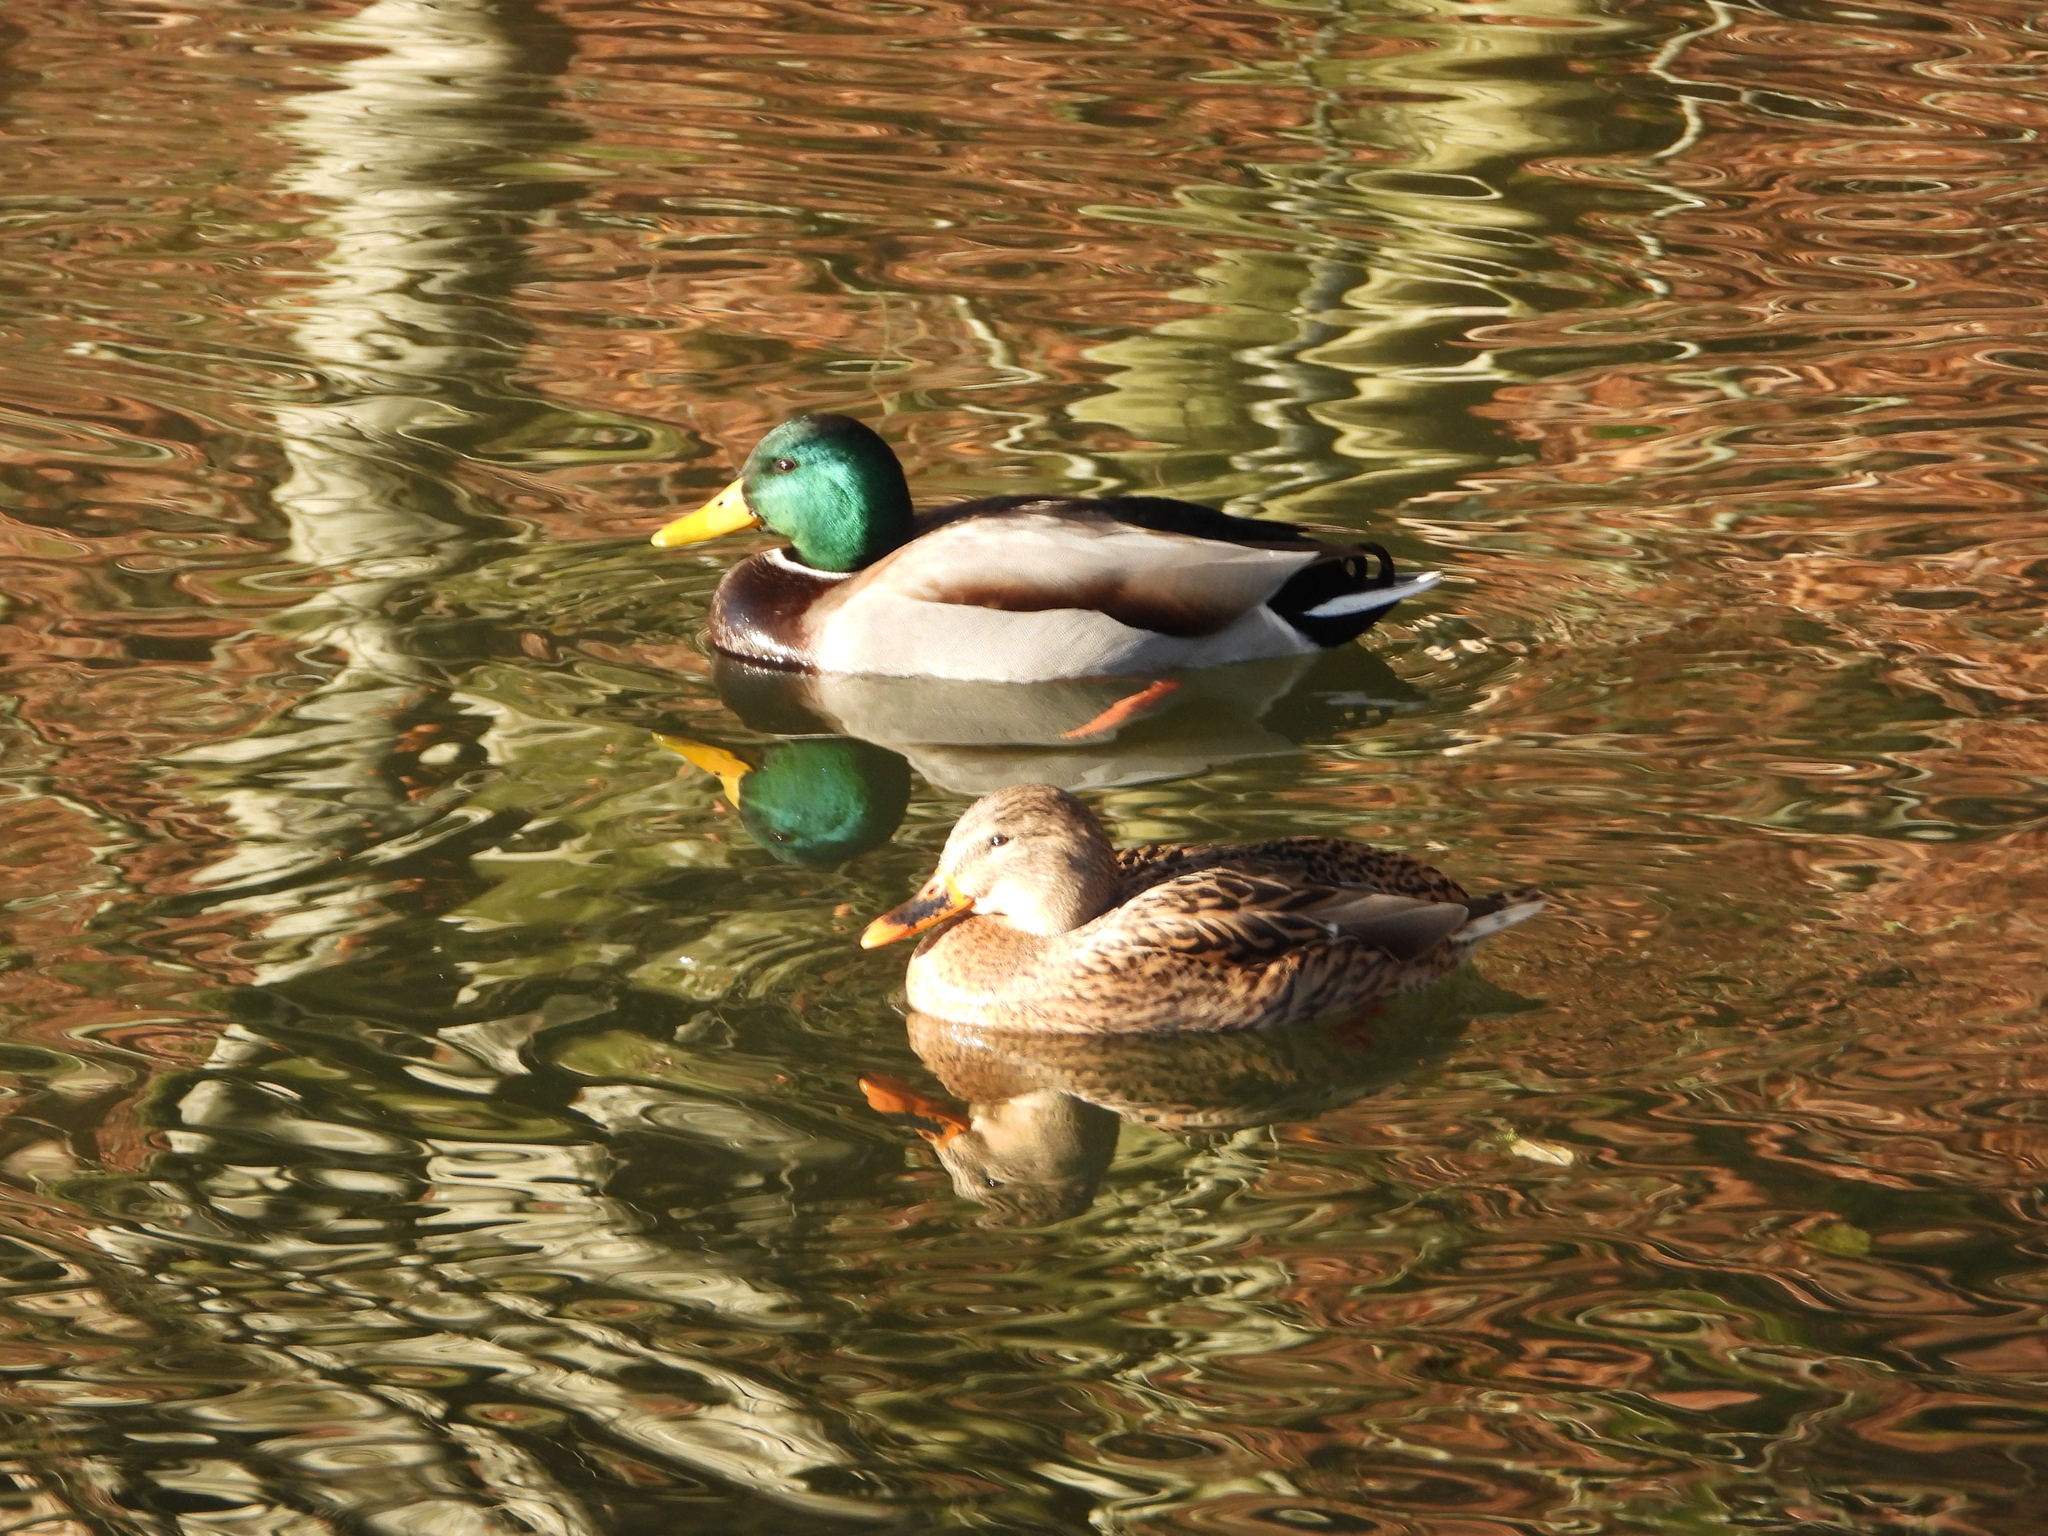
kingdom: Animalia
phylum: Chordata
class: Aves
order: Anseriformes
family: Anatidae
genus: Anas
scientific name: Anas platyrhynchos
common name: Mallard
